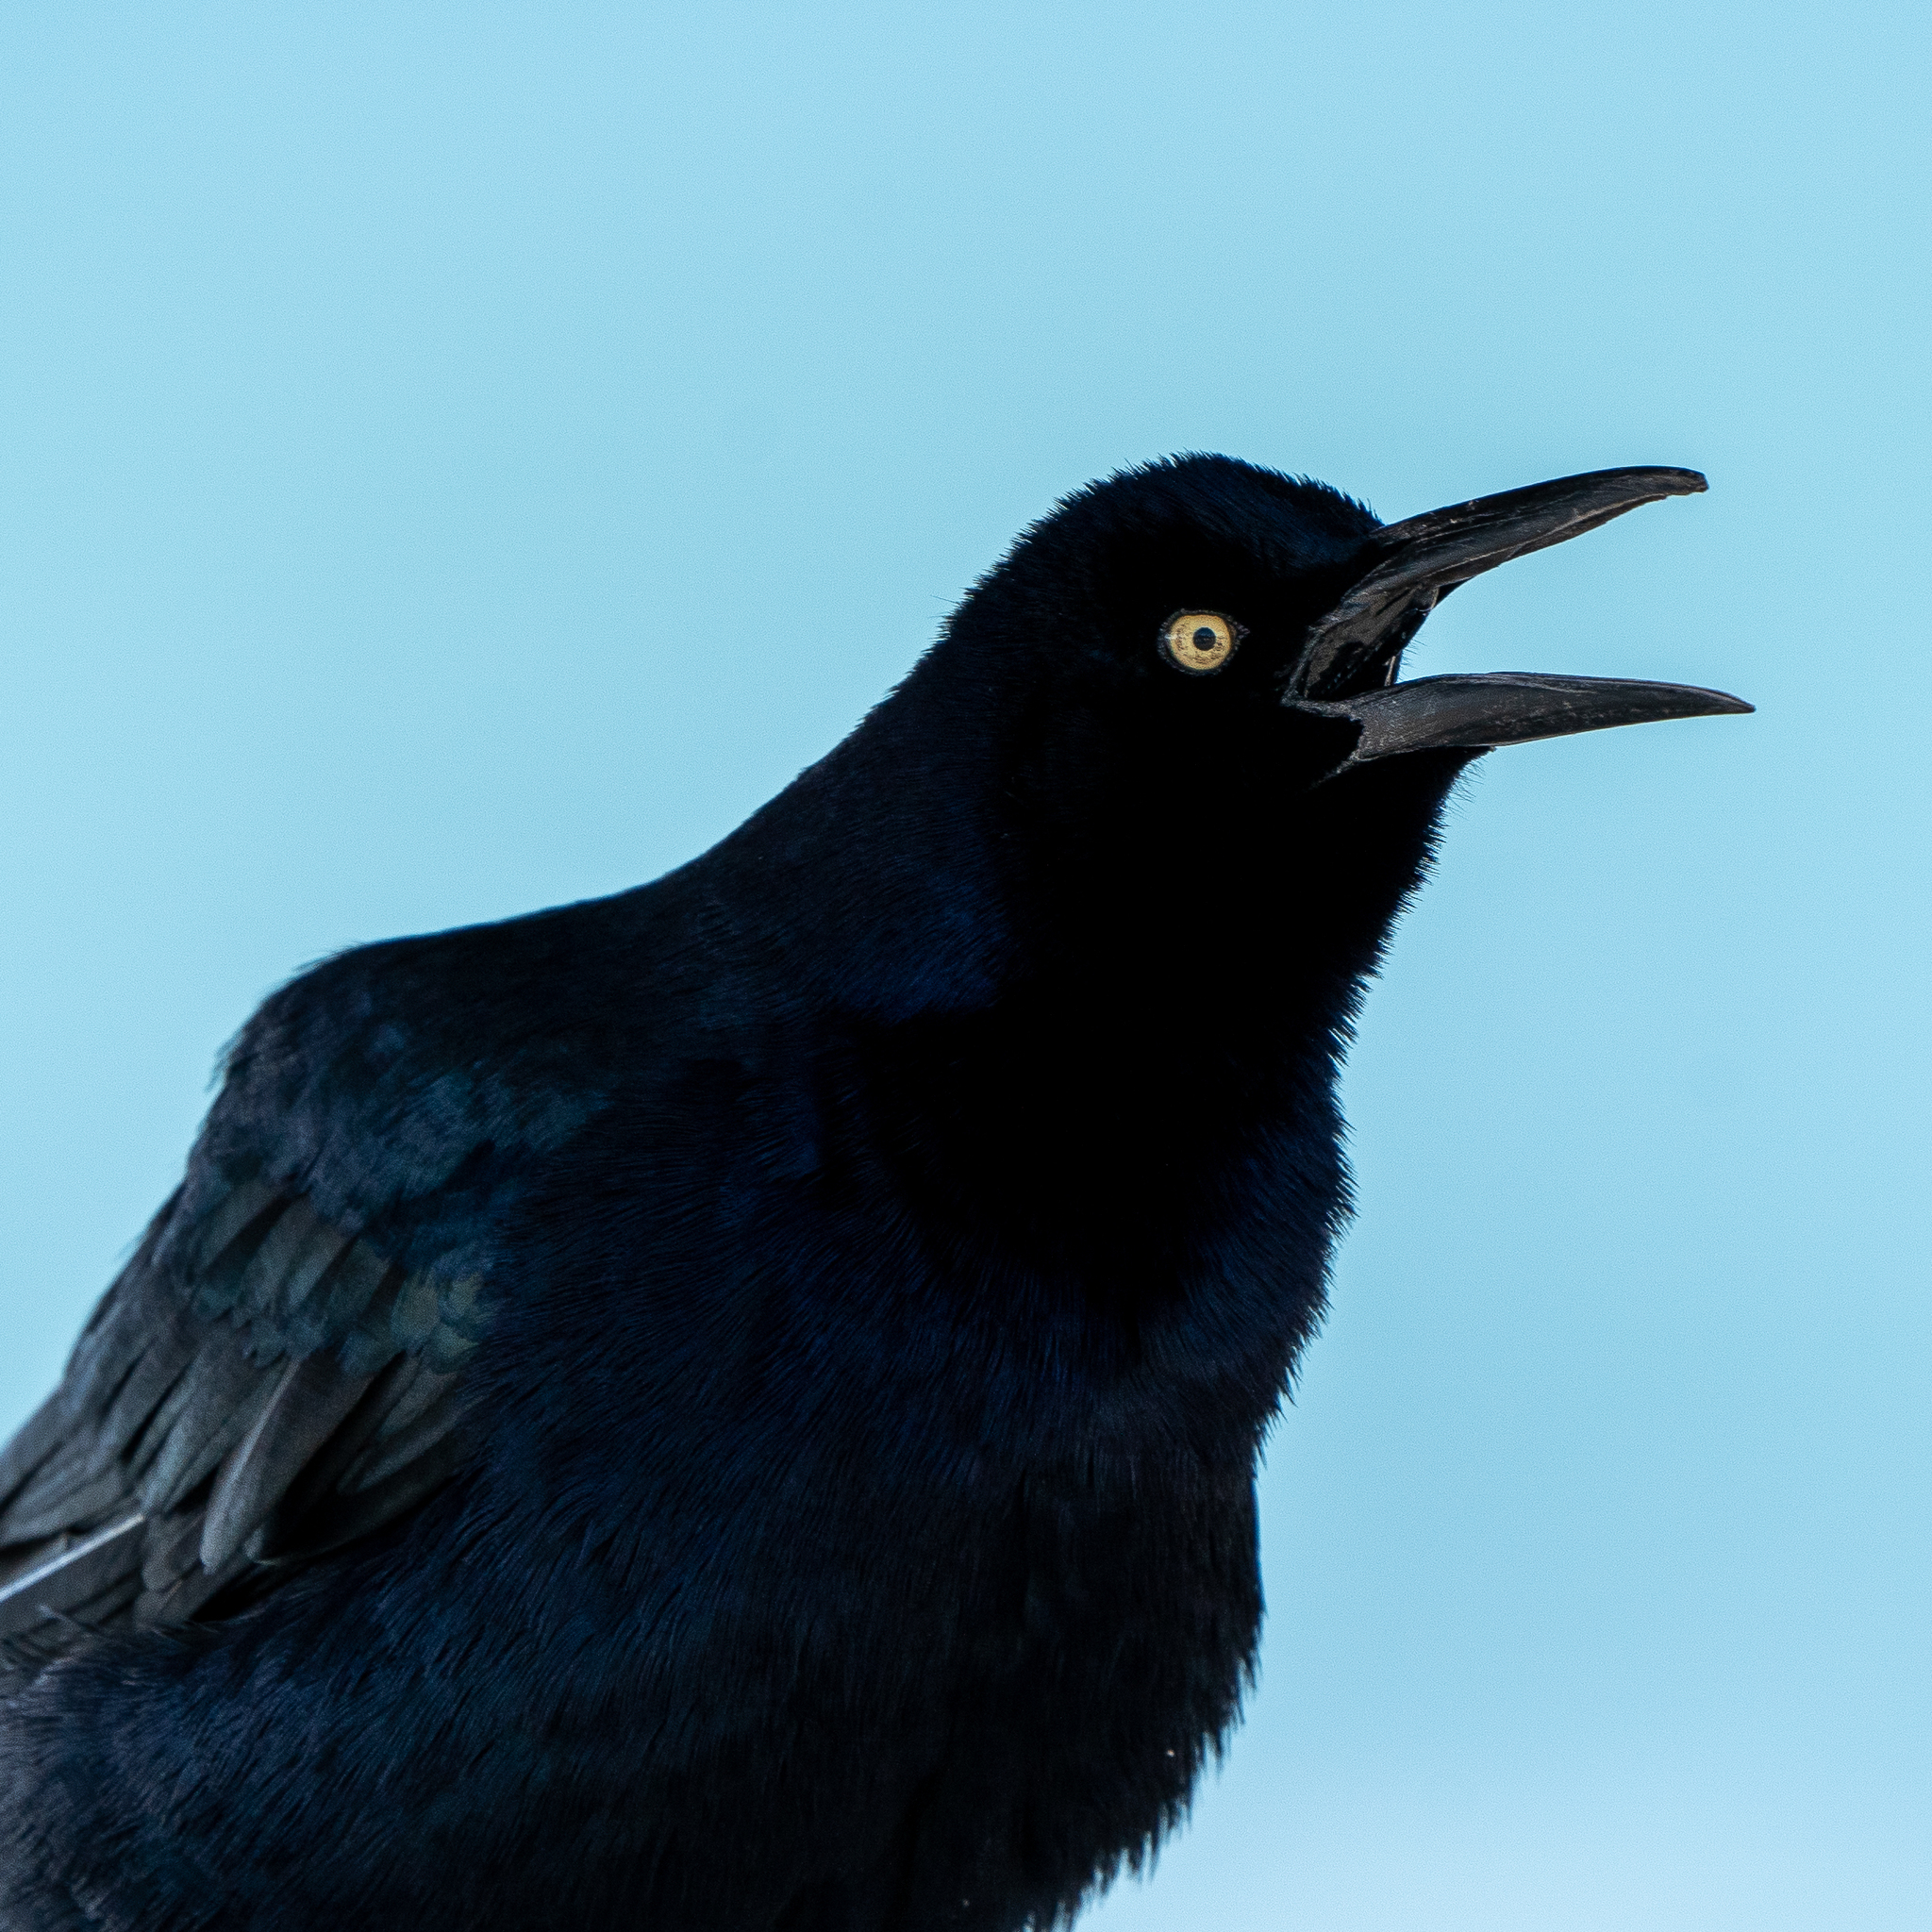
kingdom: Animalia
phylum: Chordata
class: Aves
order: Passeriformes
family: Icteridae
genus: Quiscalus
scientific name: Quiscalus mexicanus
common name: Great-tailed grackle
